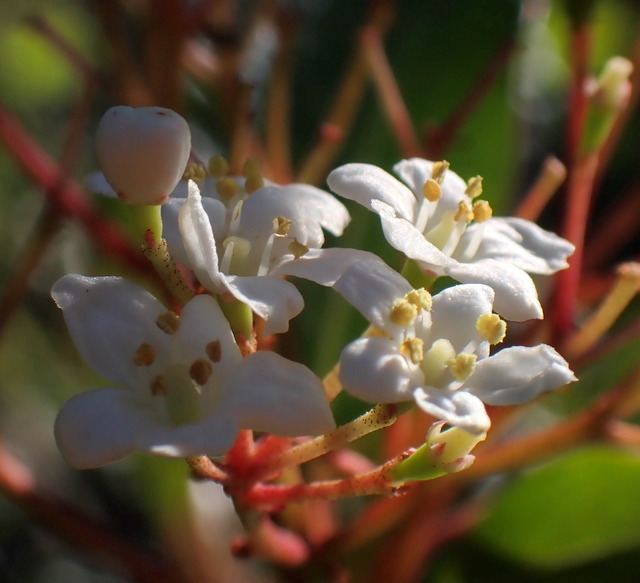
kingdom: Plantae
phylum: Tracheophyta
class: Magnoliopsida
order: Dipsacales
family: Viburnaceae
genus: Viburnum
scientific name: Viburnum obovatum
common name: Walter's viburnum
